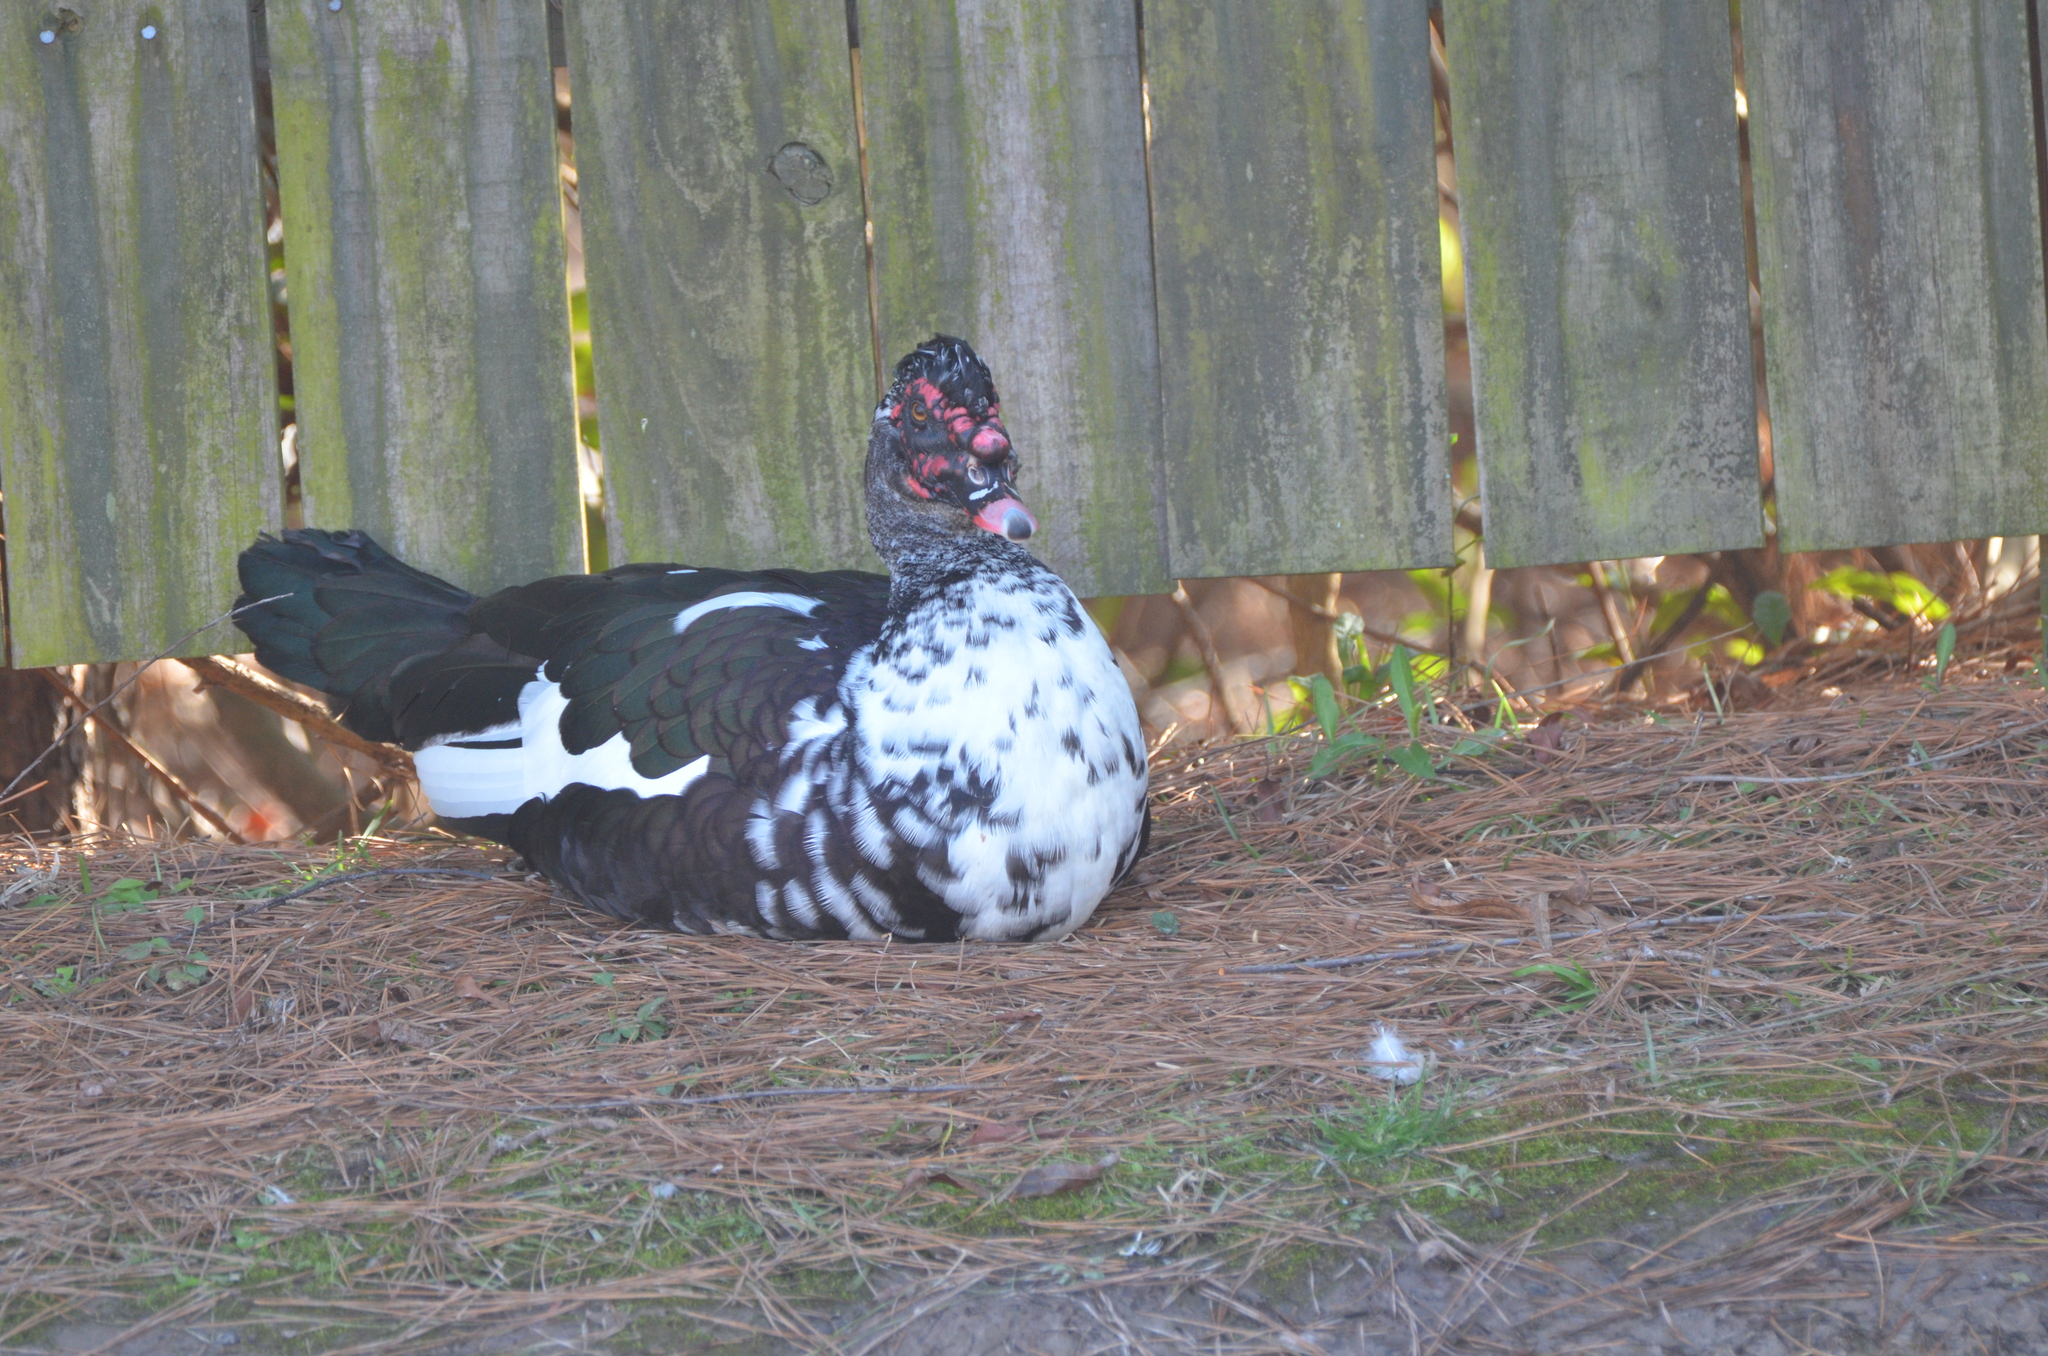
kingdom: Animalia
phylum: Chordata
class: Aves
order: Anseriformes
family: Anatidae
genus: Cairina
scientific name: Cairina moschata
